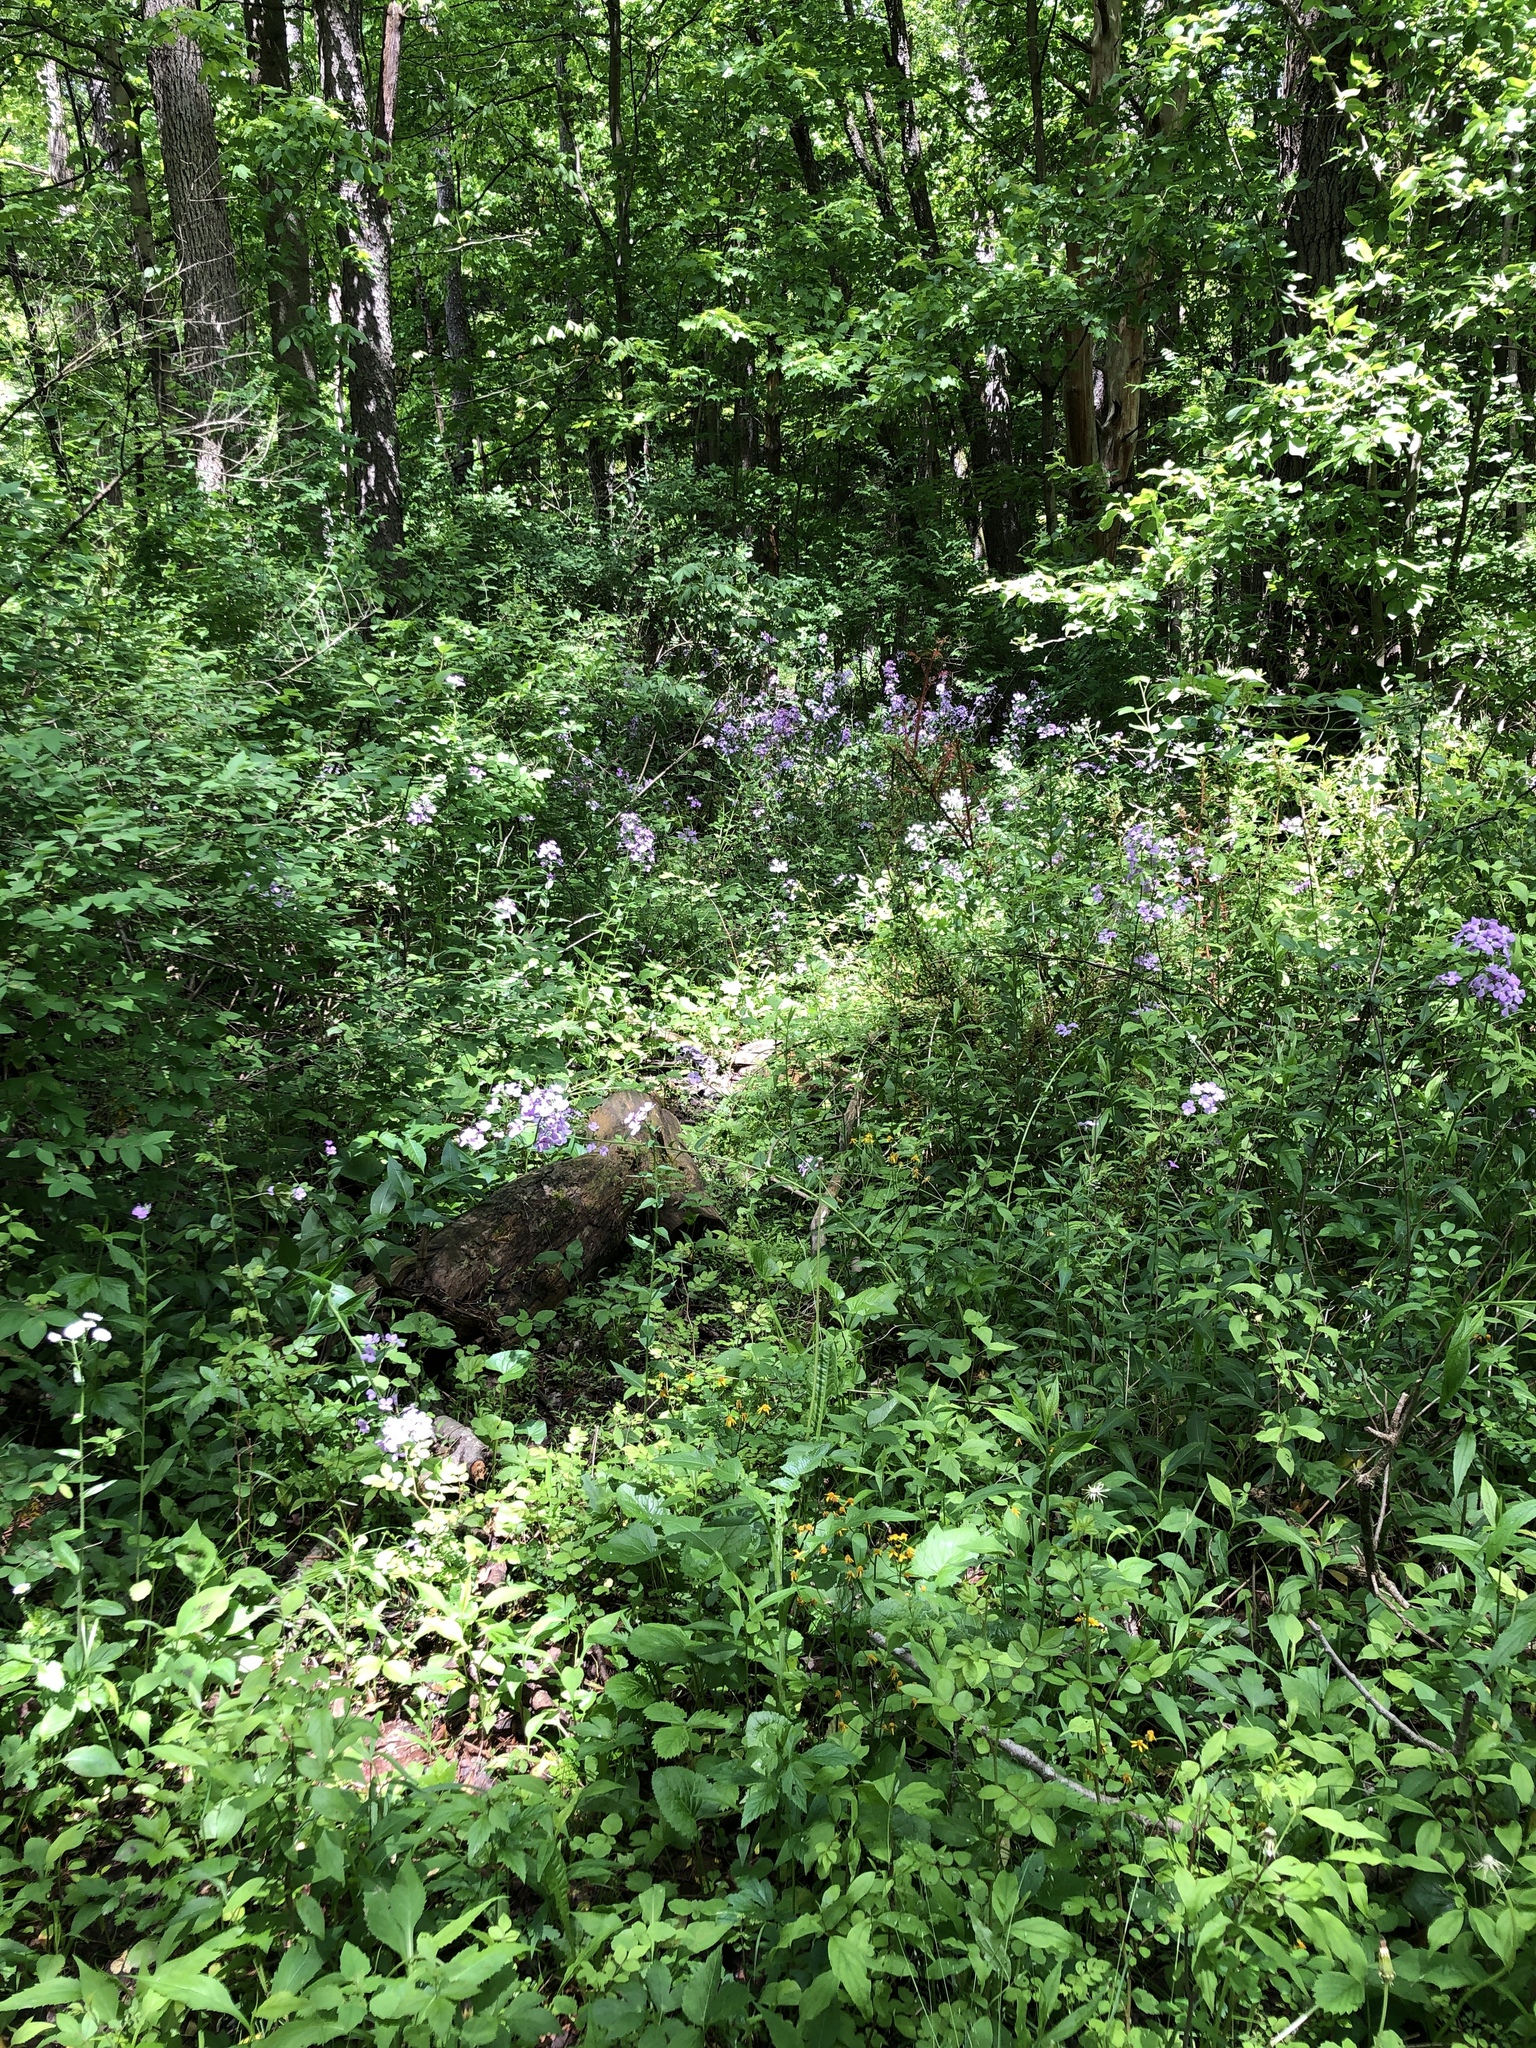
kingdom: Plantae
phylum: Tracheophyta
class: Magnoliopsida
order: Brassicales
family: Brassicaceae
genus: Hesperis
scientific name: Hesperis matronalis
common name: Dame's-violet
